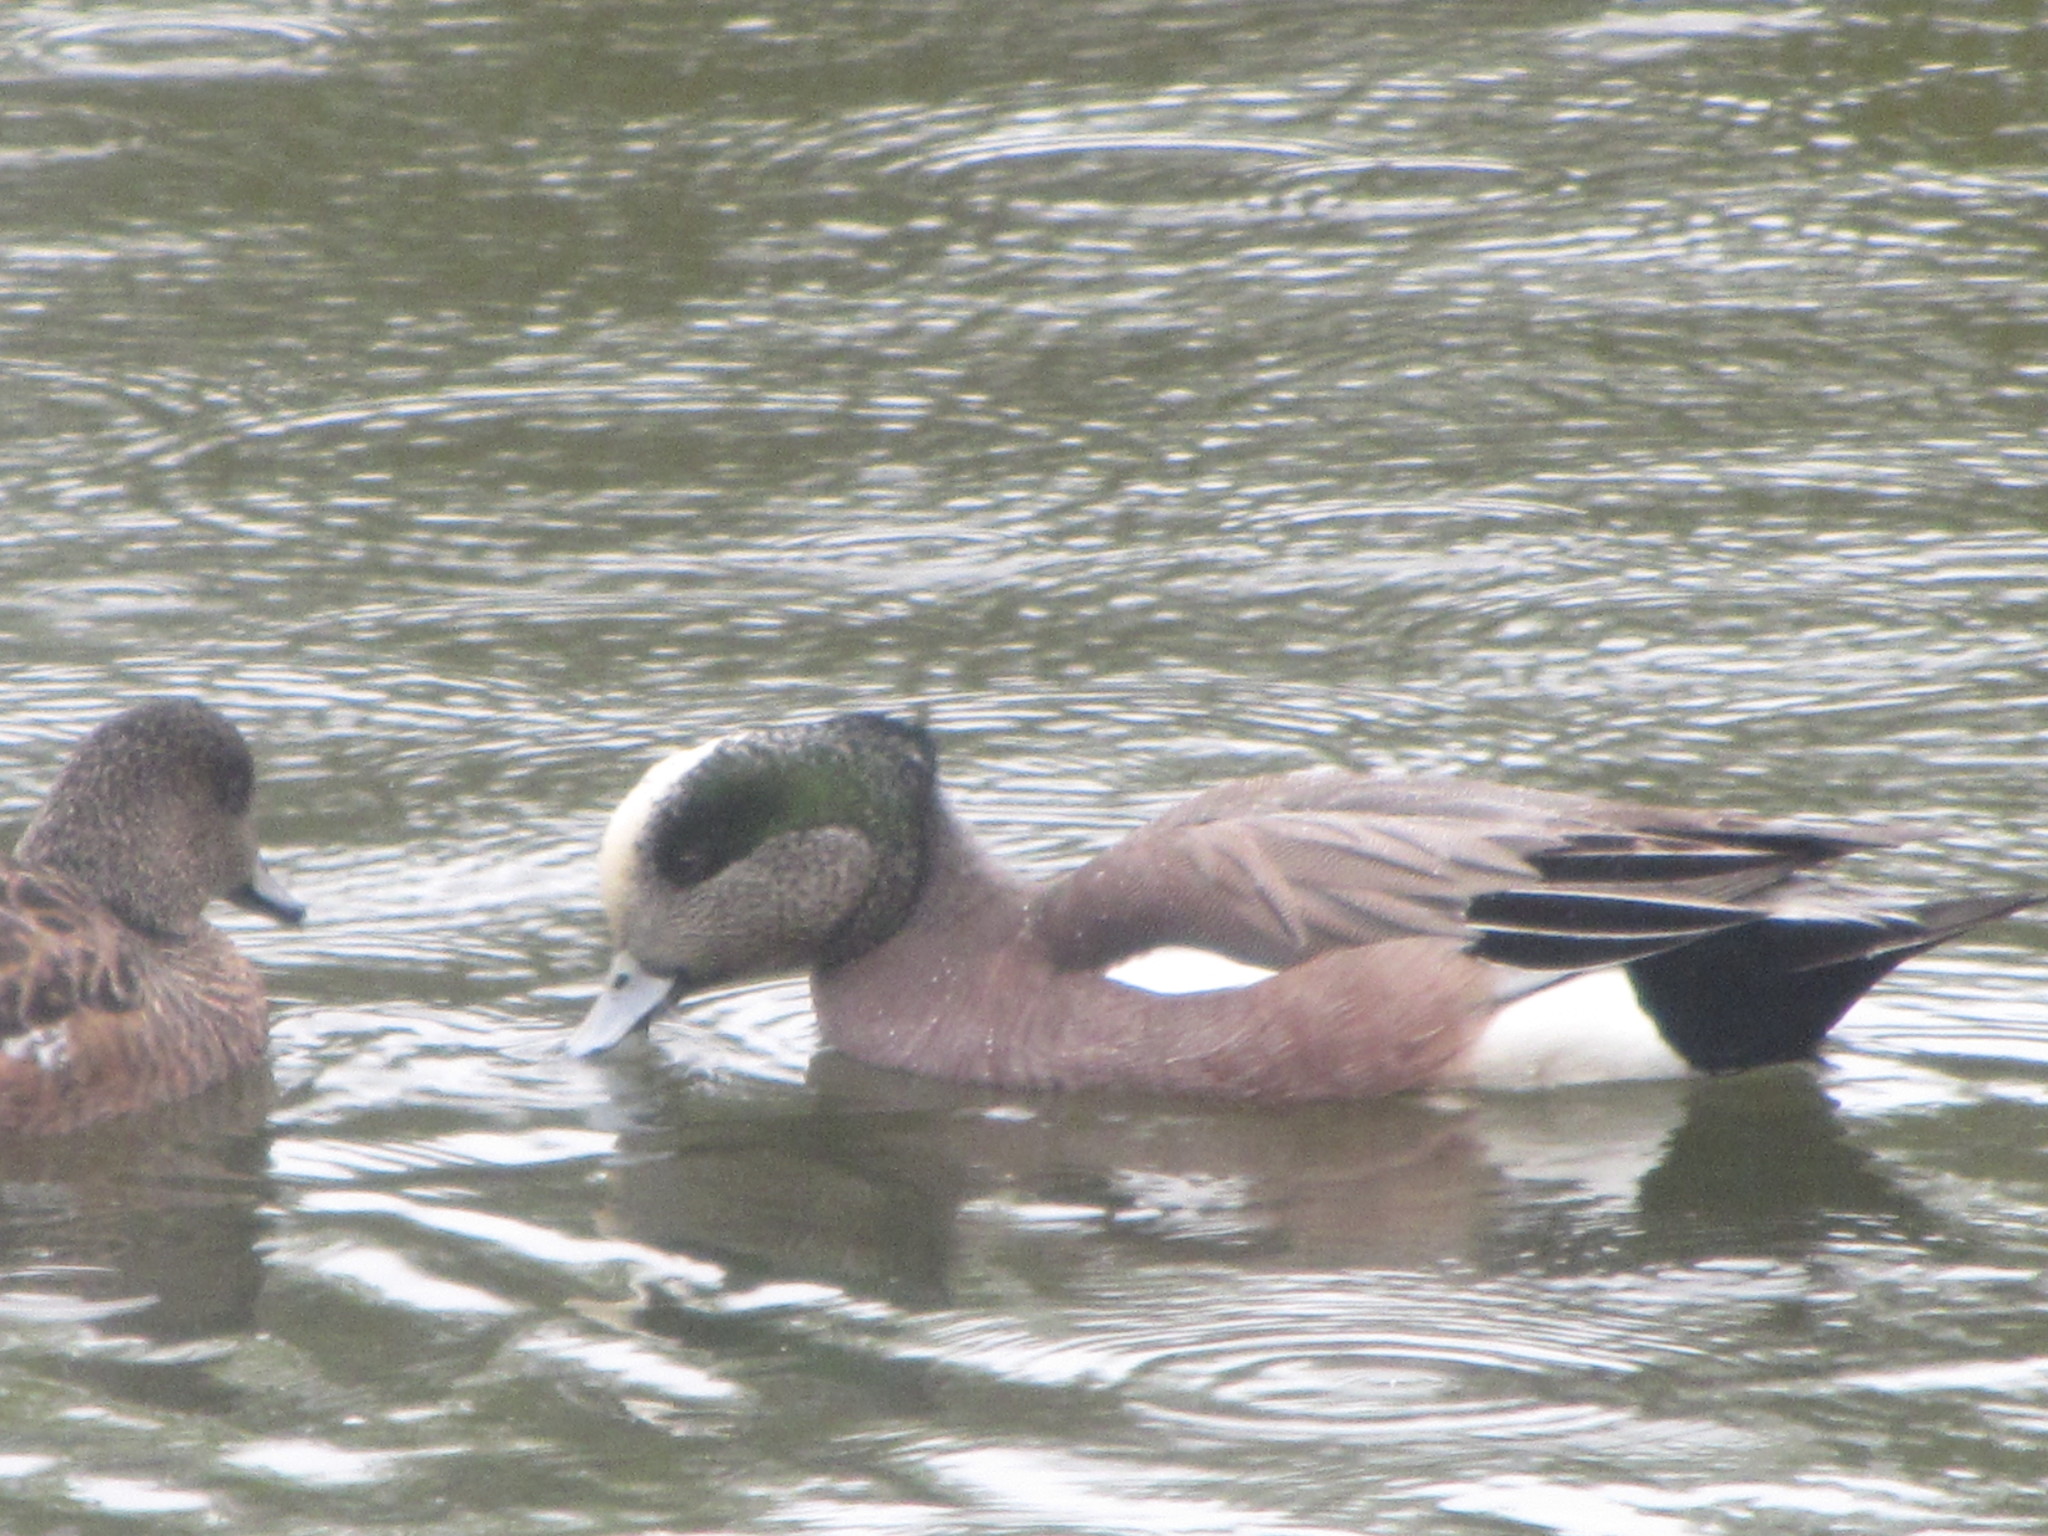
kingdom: Animalia
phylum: Chordata
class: Aves
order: Anseriformes
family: Anatidae
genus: Mareca
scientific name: Mareca americana
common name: American wigeon
